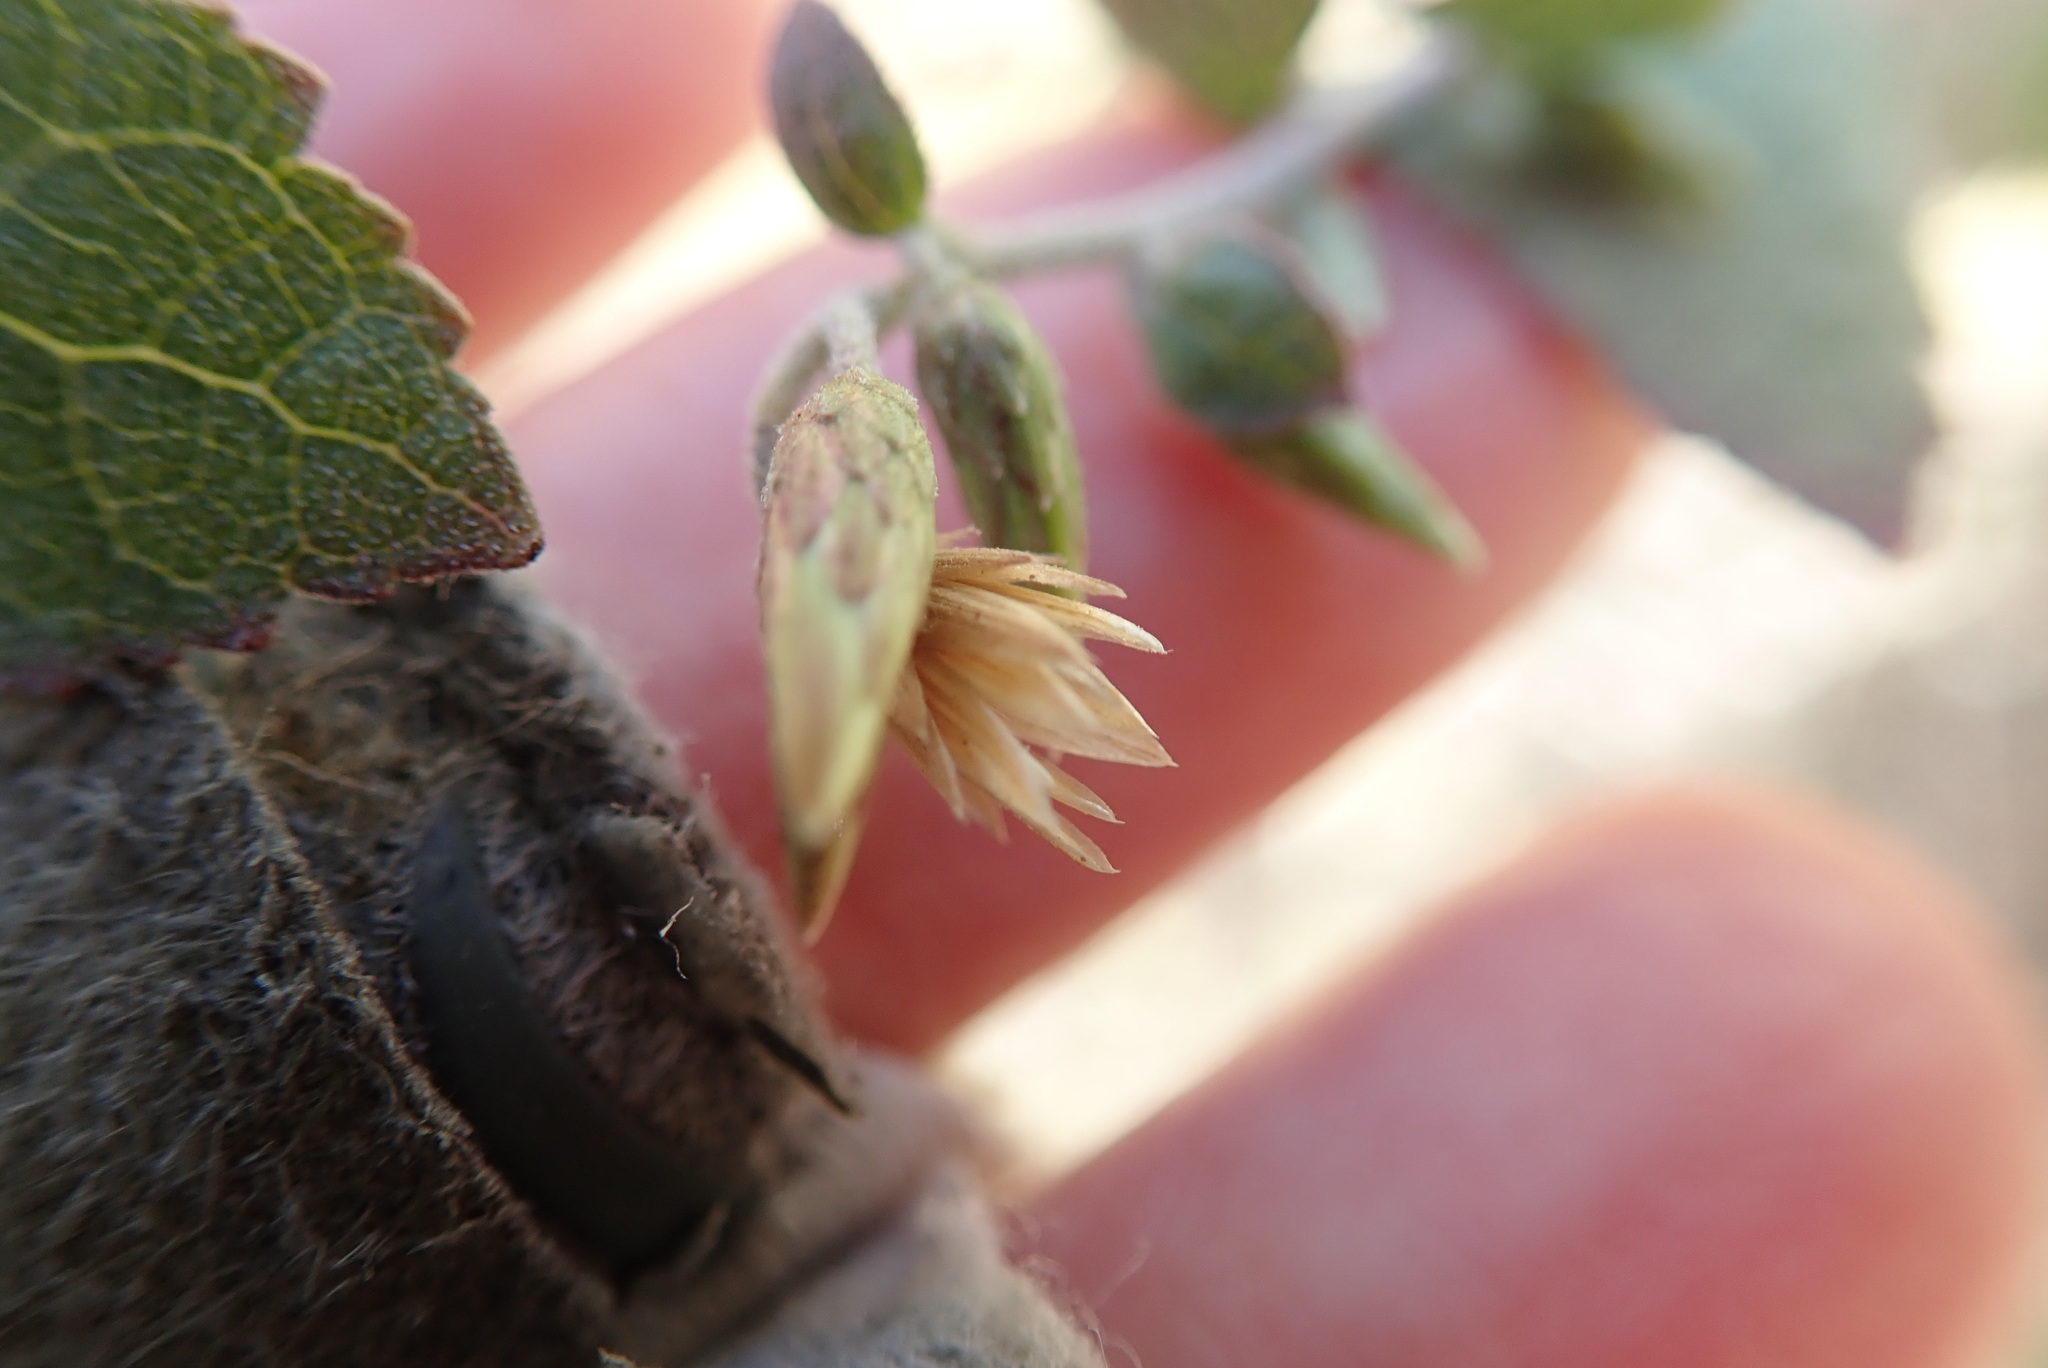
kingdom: Plantae
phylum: Tracheophyta
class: Magnoliopsida
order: Asterales
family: Asteraceae
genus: Brickellia
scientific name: Brickellia californica
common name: California brickellbush
